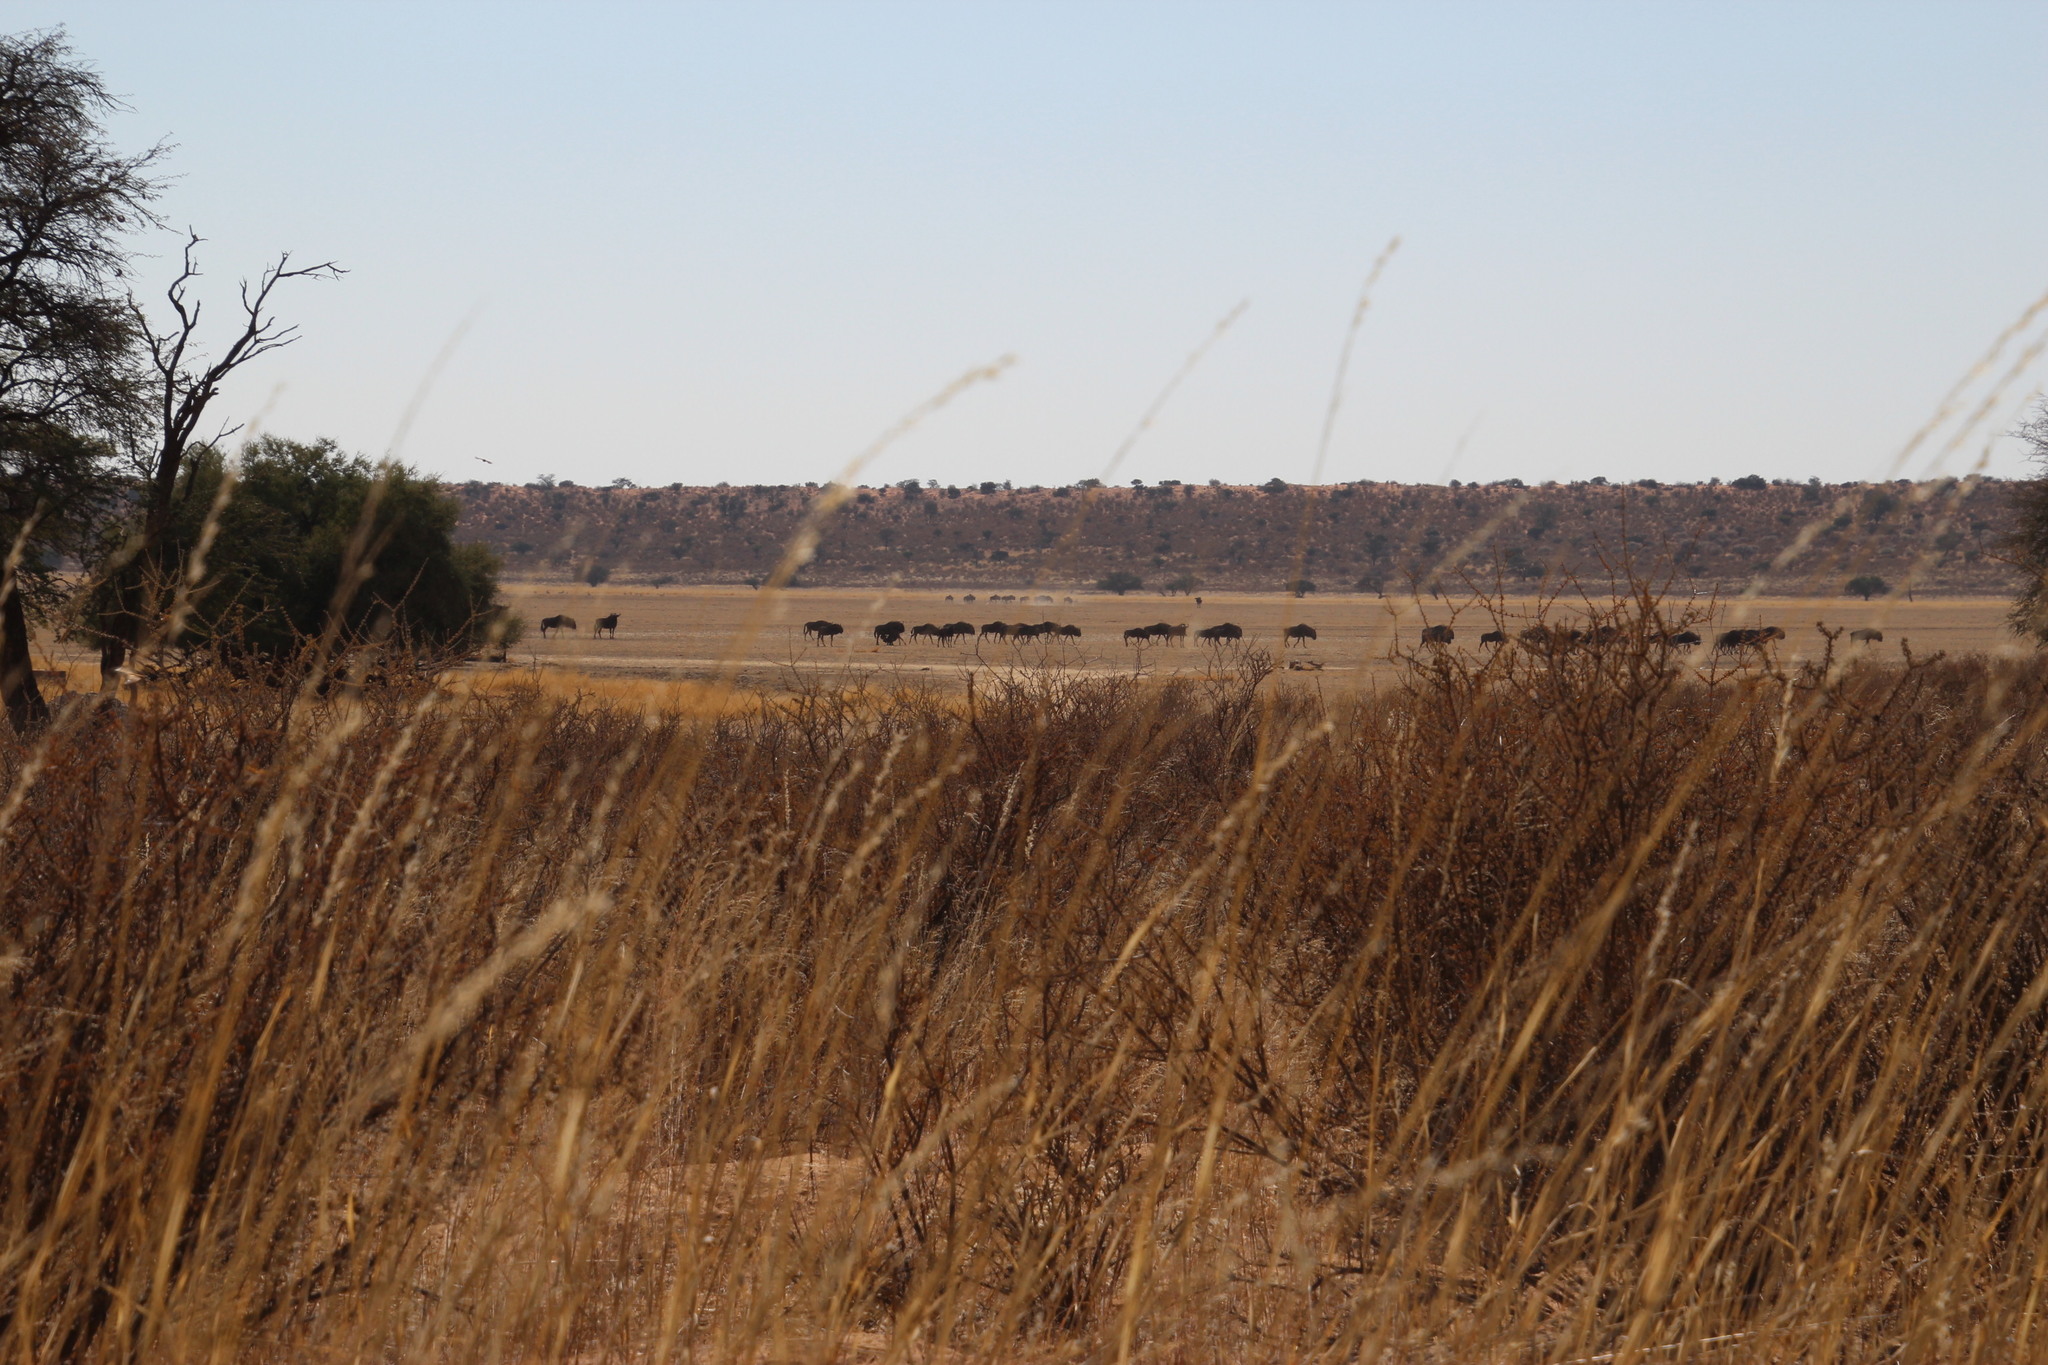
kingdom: Animalia
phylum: Chordata
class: Mammalia
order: Artiodactyla
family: Bovidae
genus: Connochaetes
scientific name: Connochaetes taurinus
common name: Blue wildebeest
